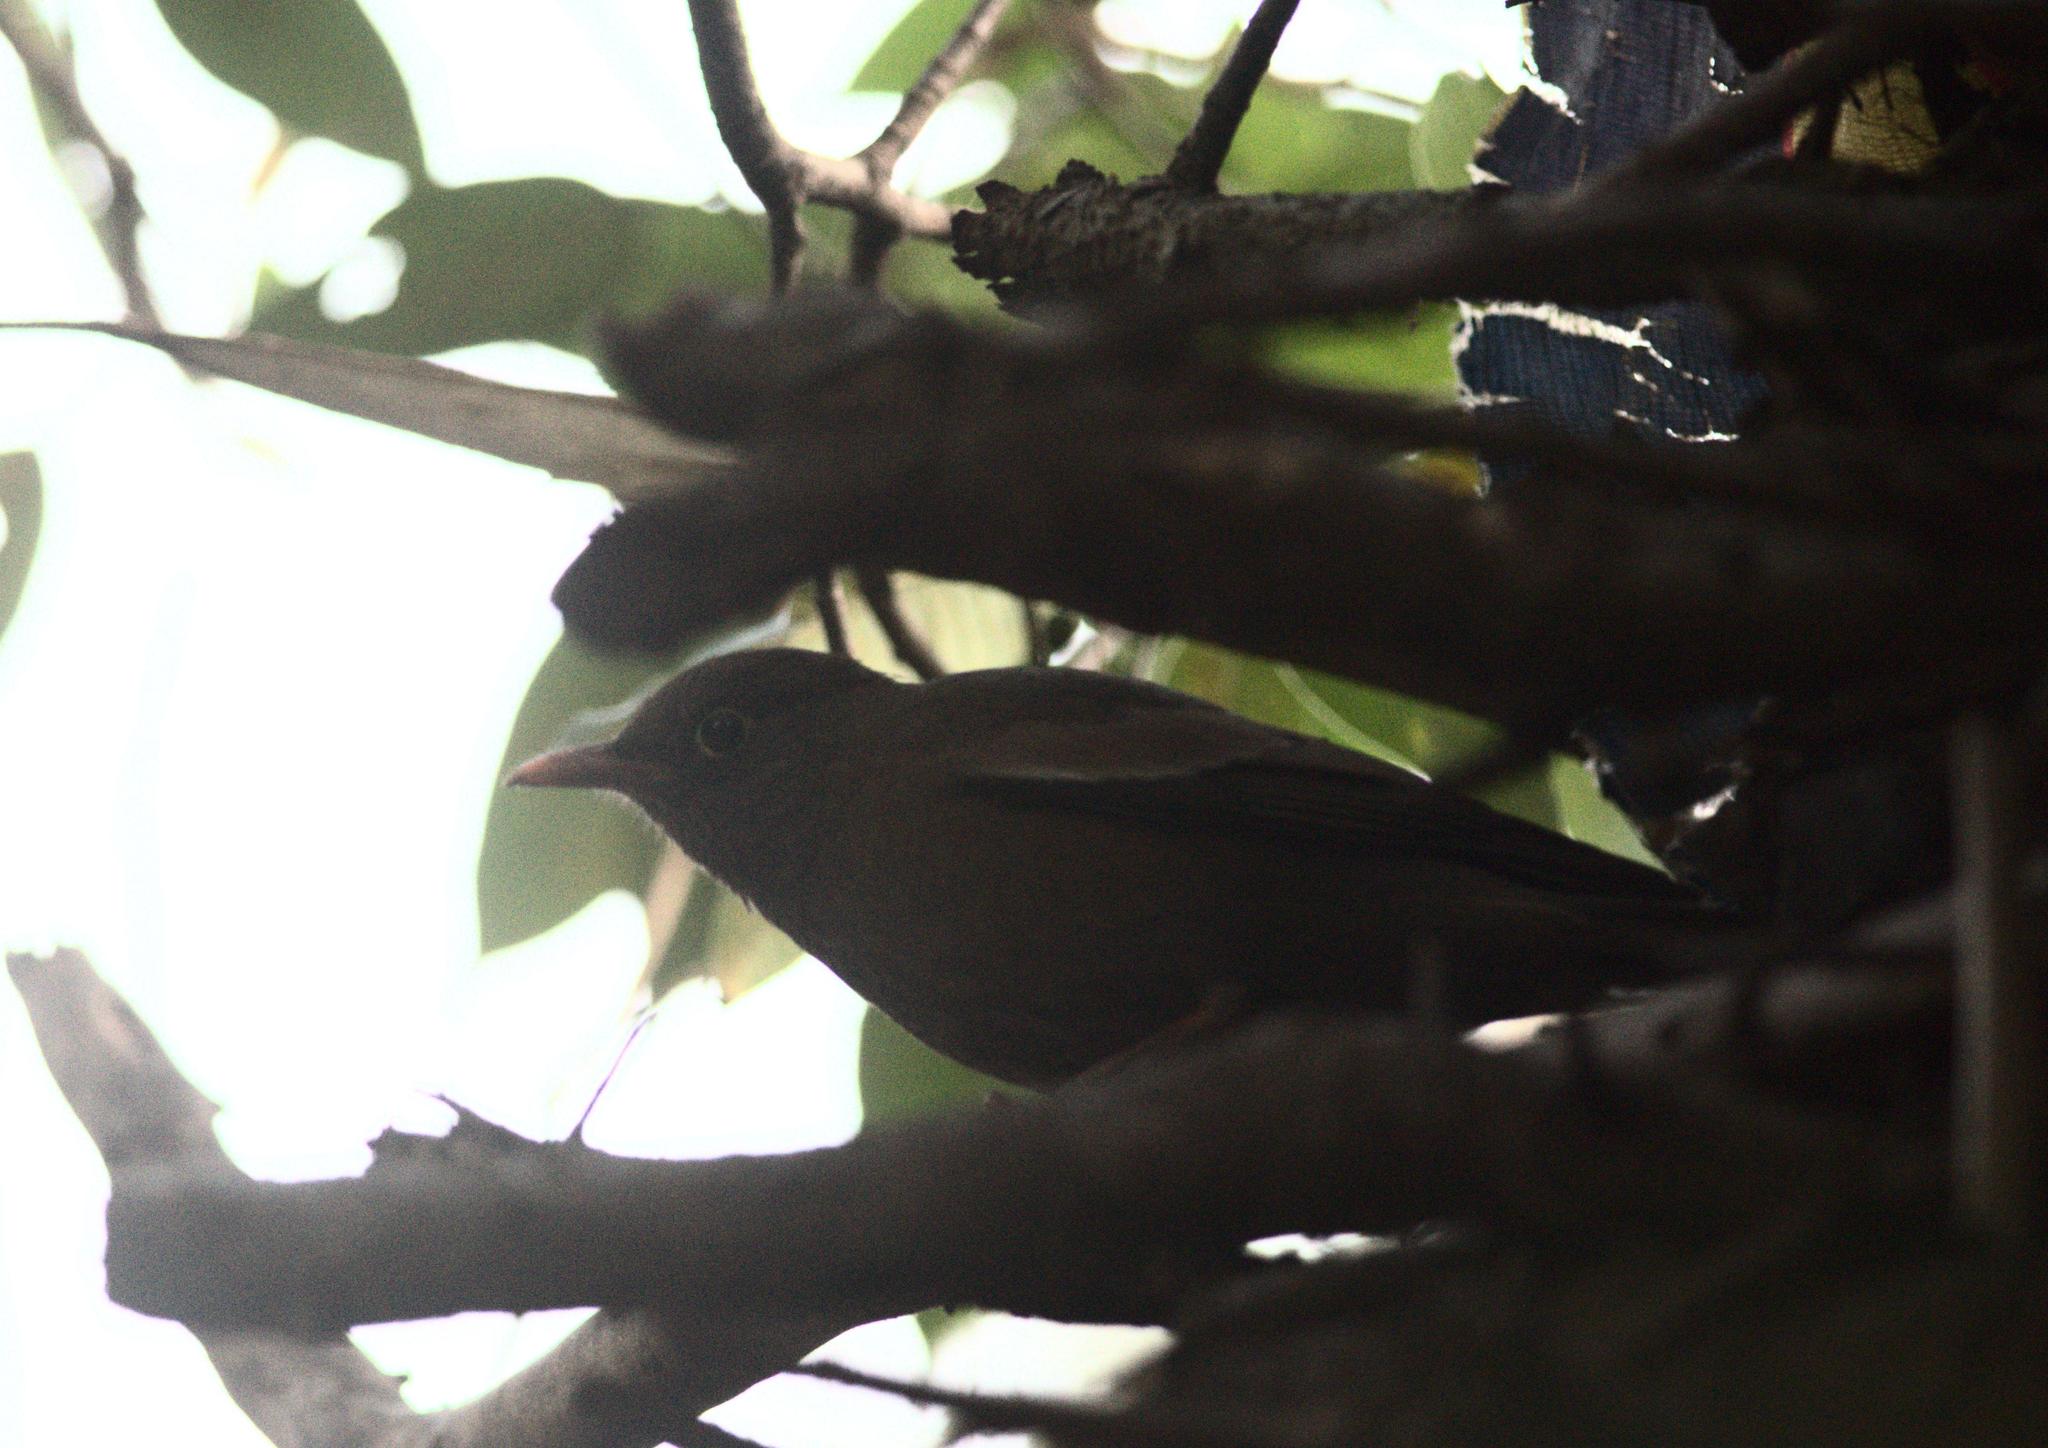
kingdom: Animalia
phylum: Chordata
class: Aves
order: Passeriformes
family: Turdidae
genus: Turdus
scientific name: Turdus boulboul
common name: Grey-winged blackbird
